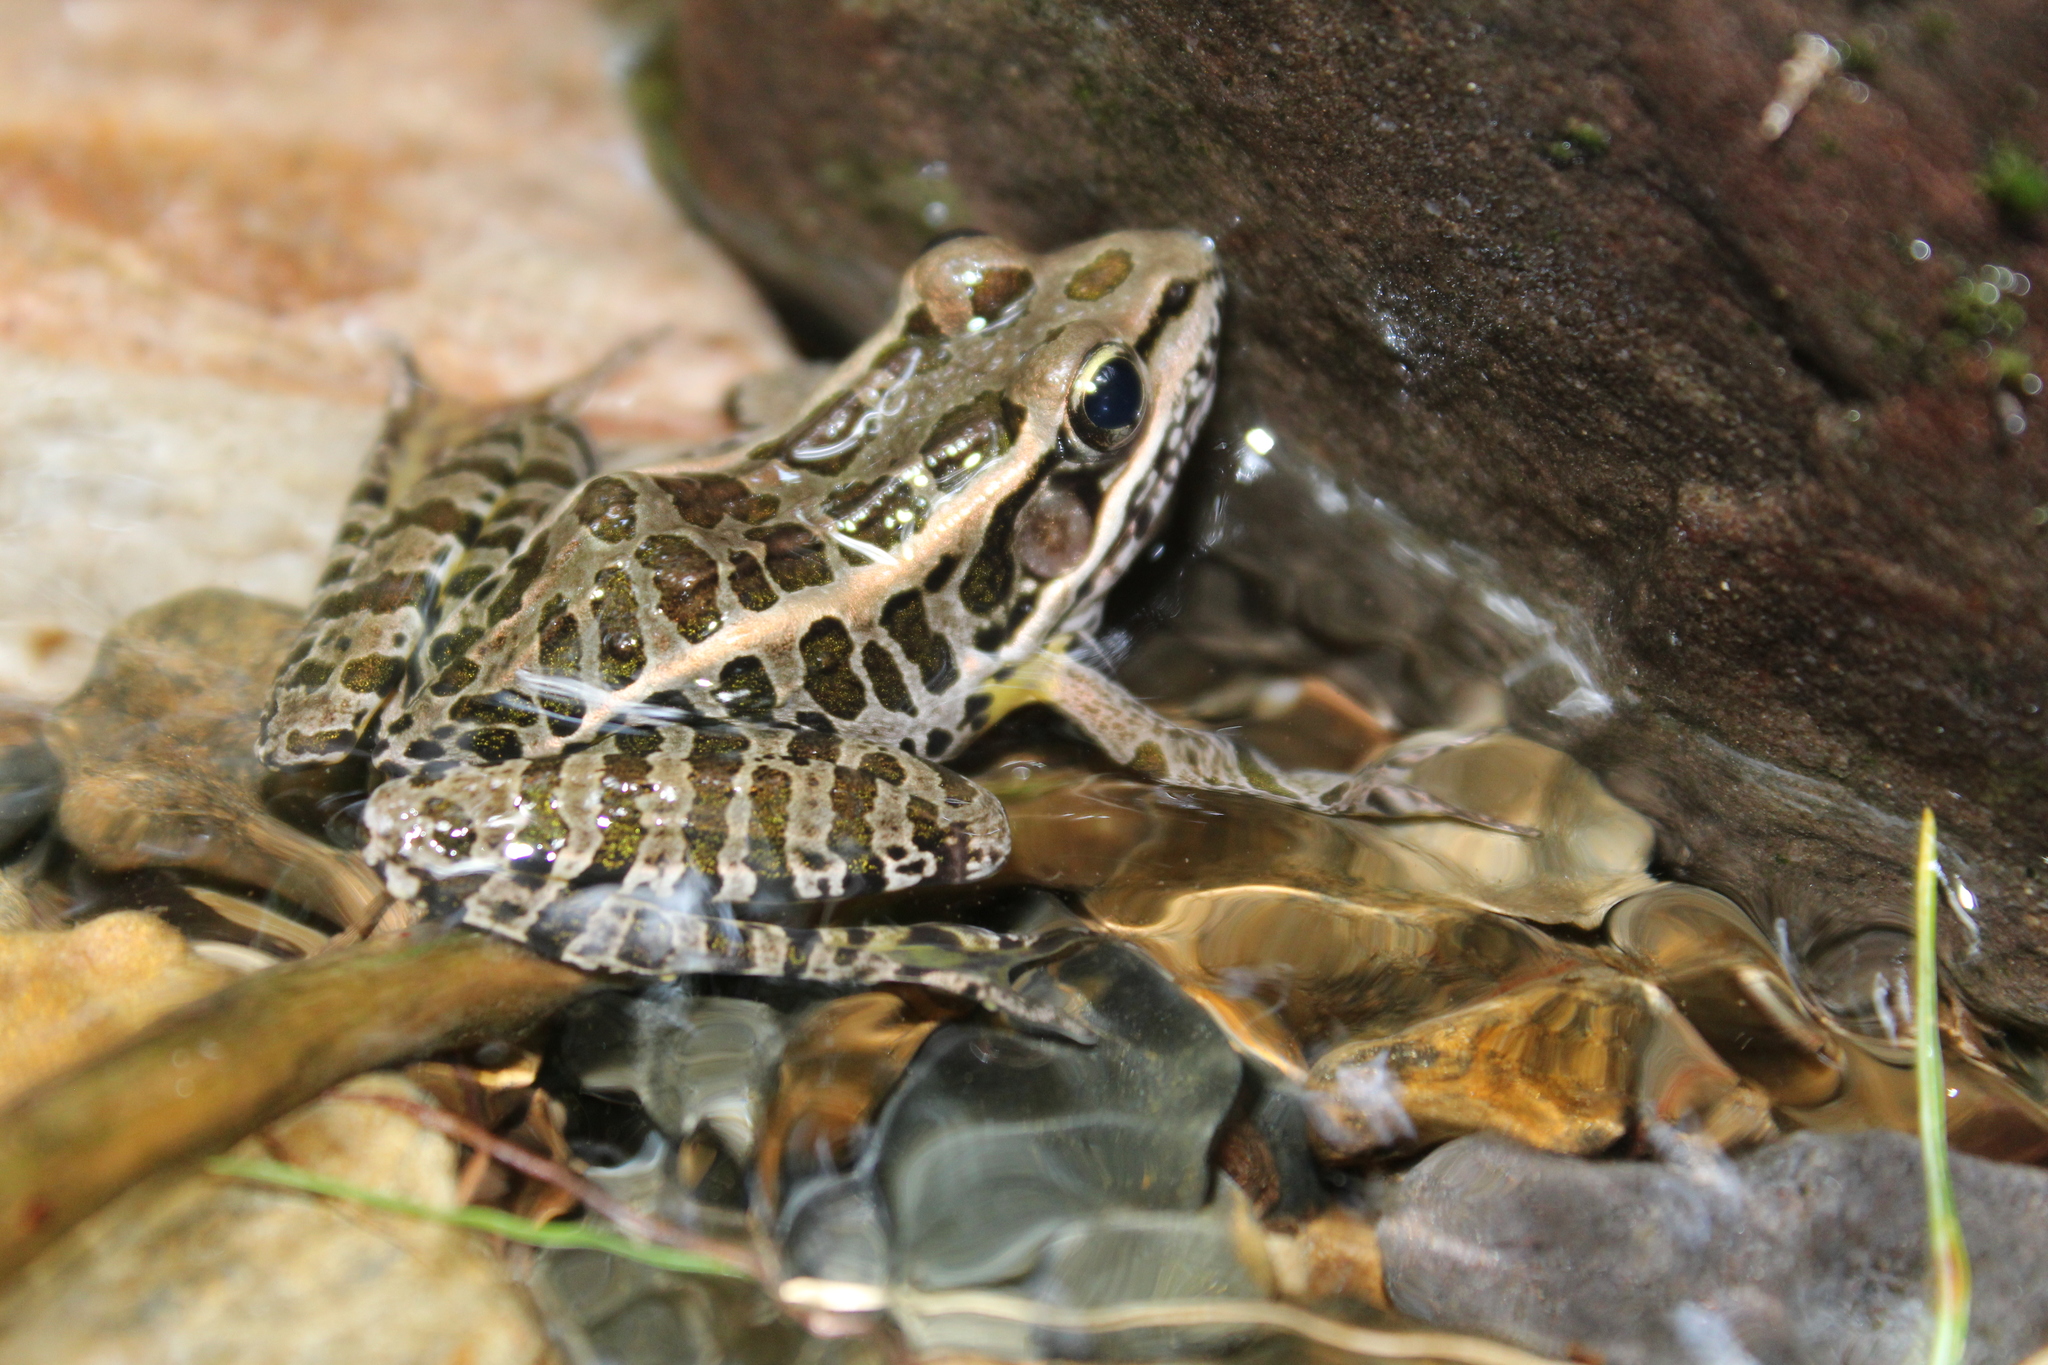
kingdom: Animalia
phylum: Chordata
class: Amphibia
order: Anura
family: Ranidae
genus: Lithobates
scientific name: Lithobates palustris
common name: Pickerel frog
